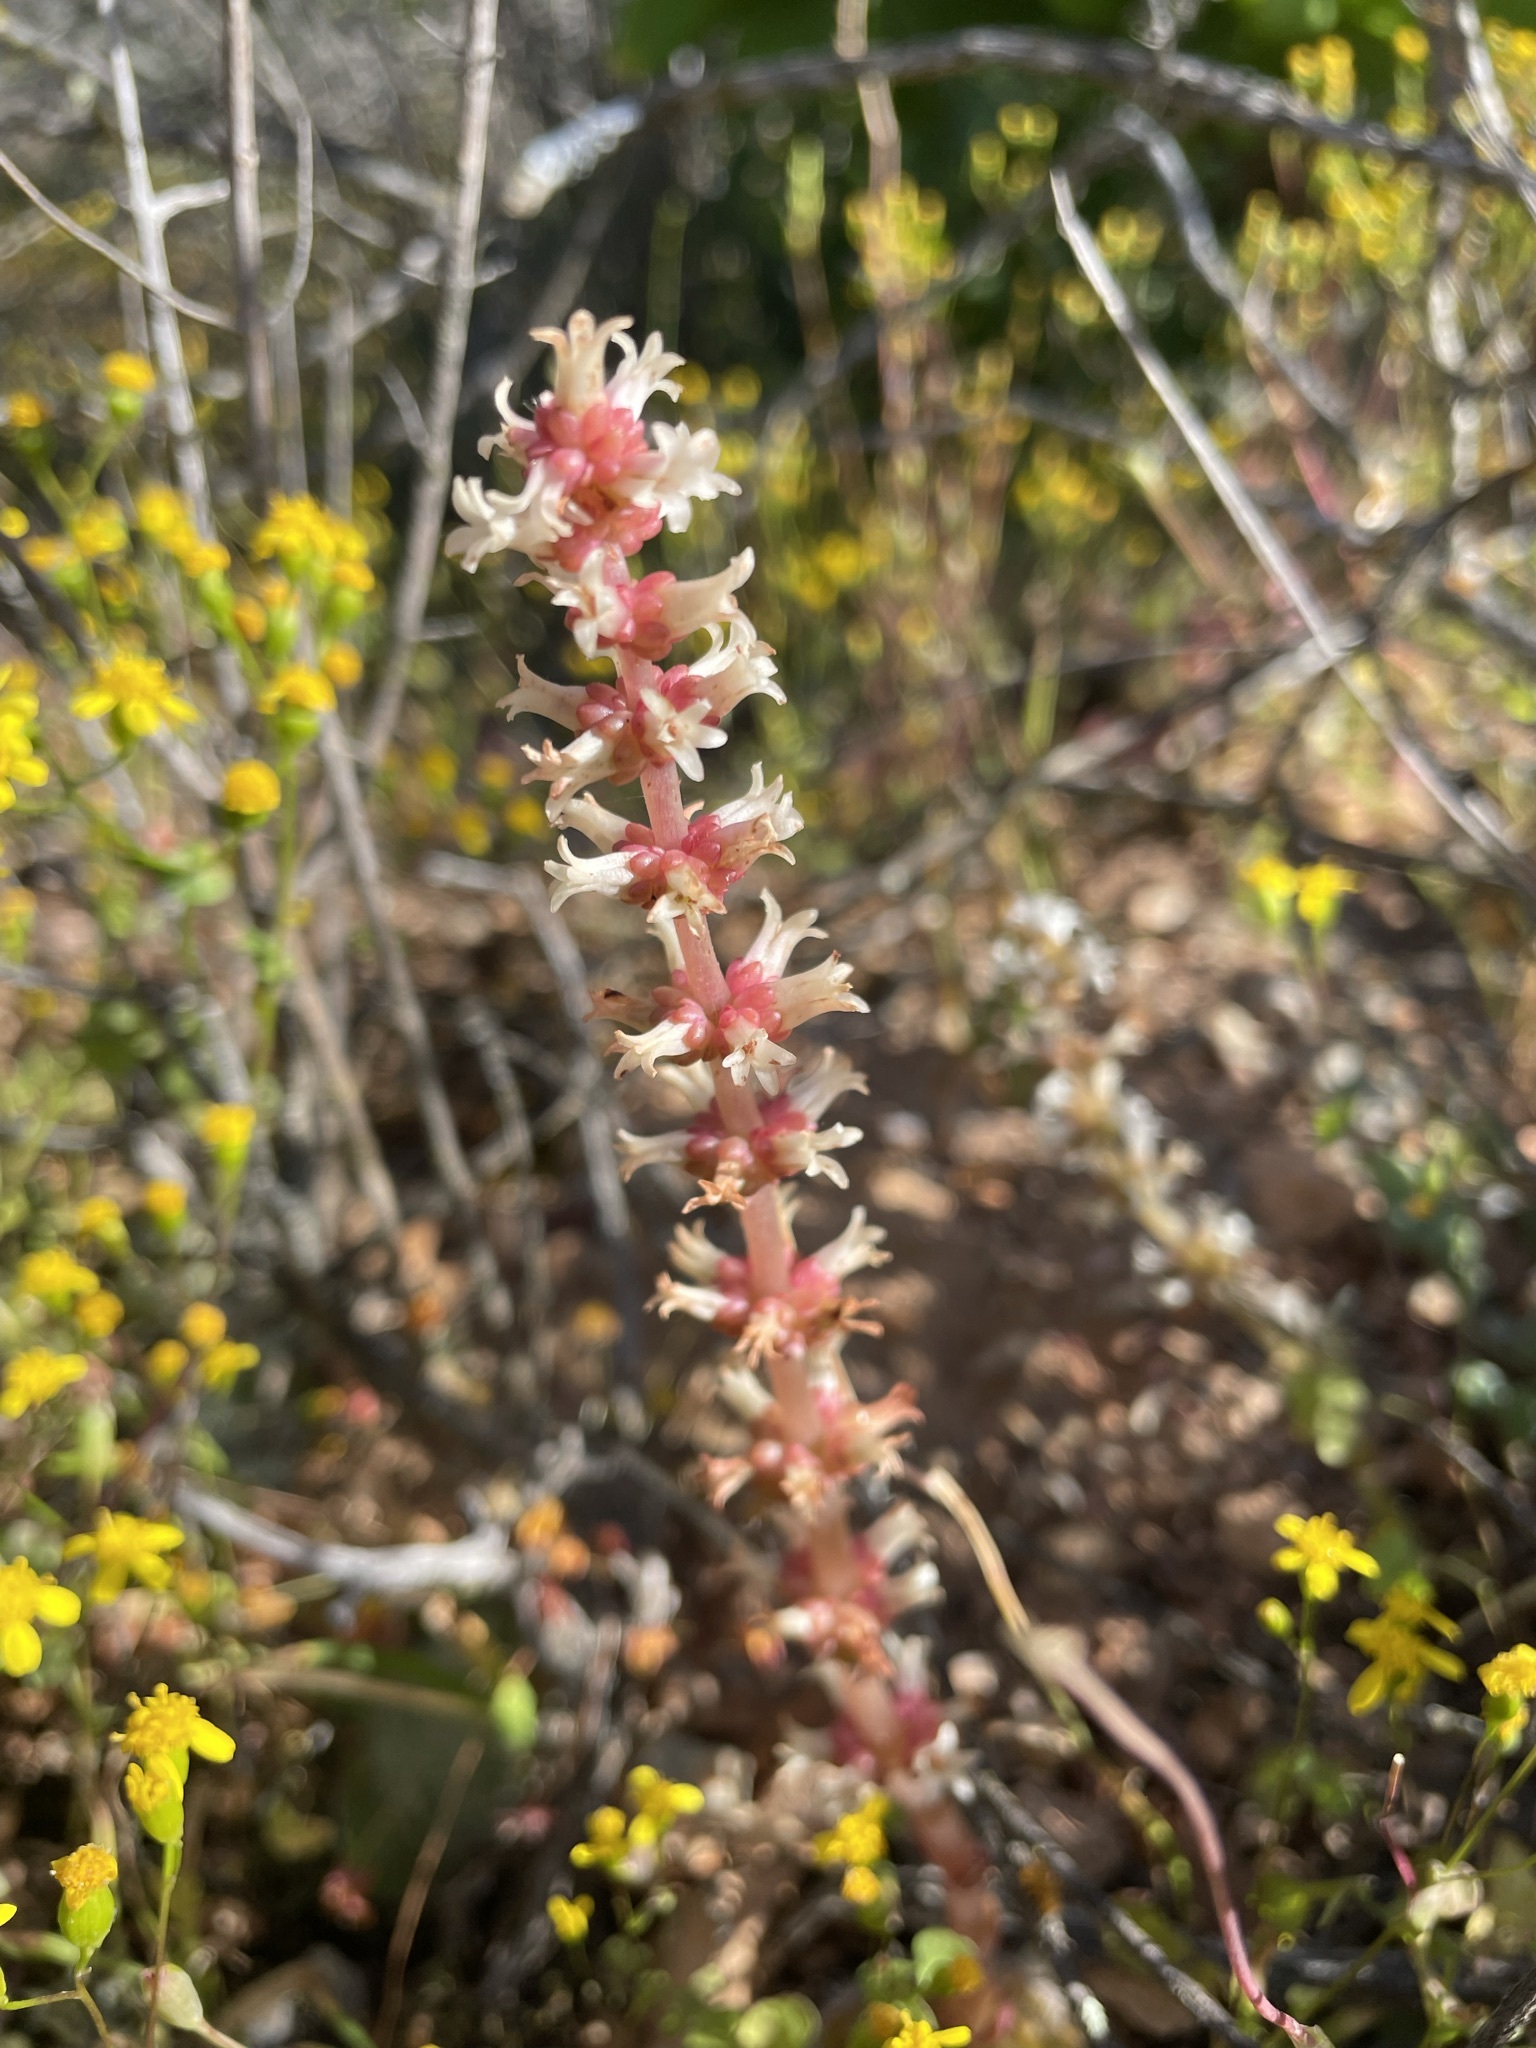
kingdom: Plantae
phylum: Tracheophyta
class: Magnoliopsida
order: Saxifragales
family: Crassulaceae
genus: Crassula
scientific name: Crassula barbata
